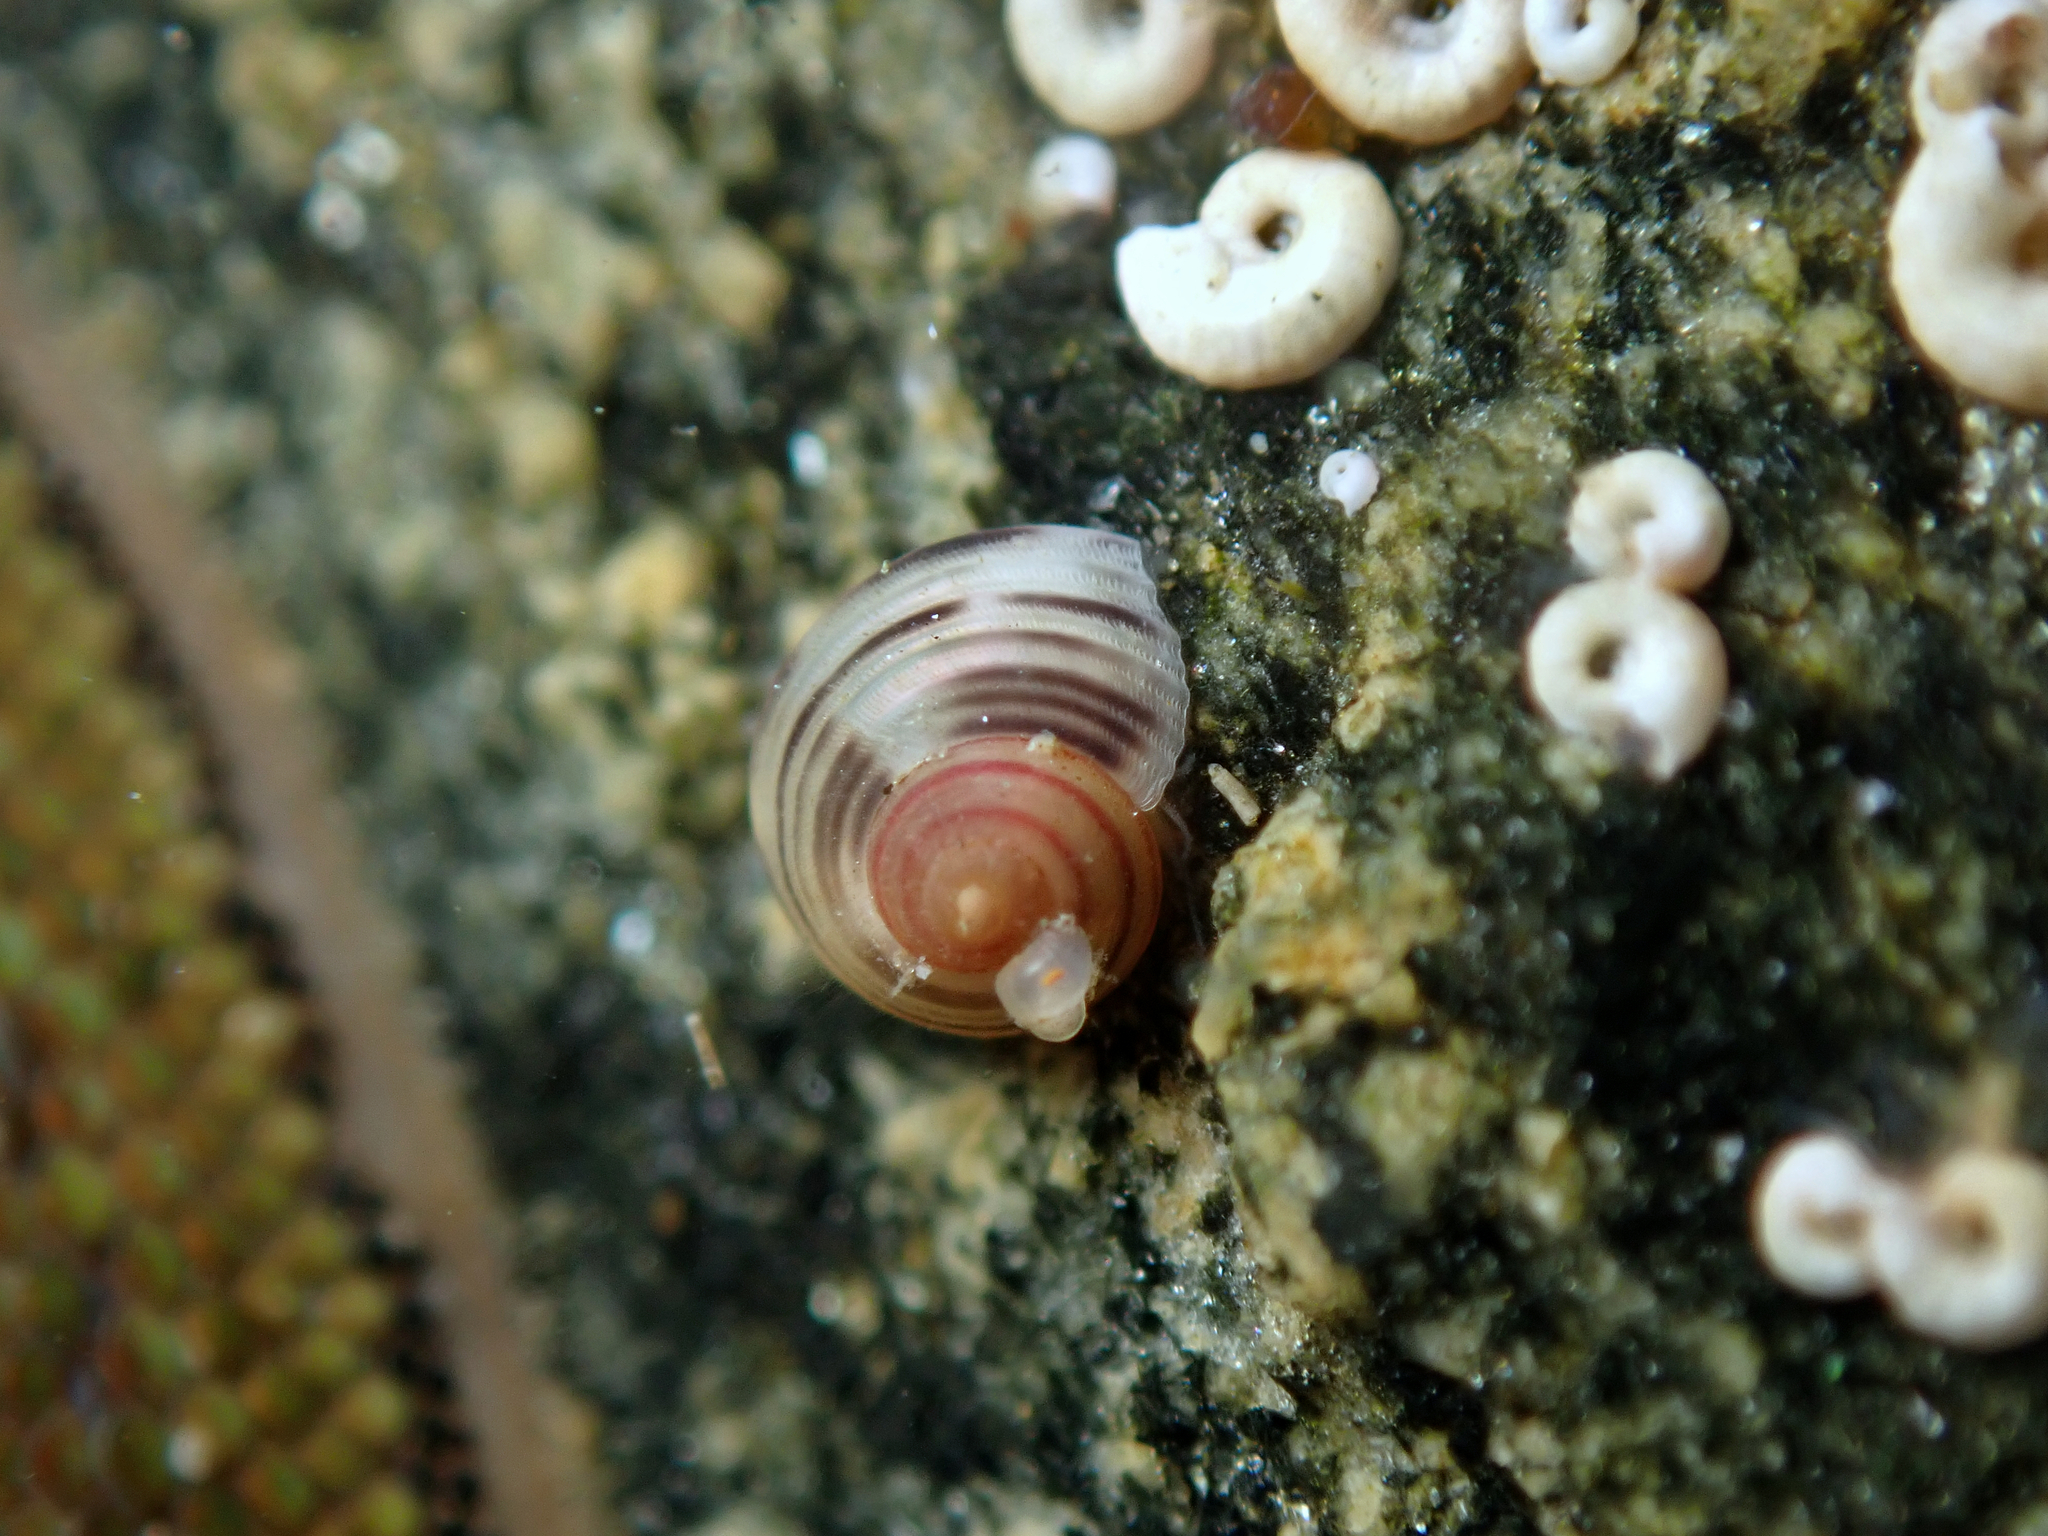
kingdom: Animalia
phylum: Mollusca
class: Gastropoda
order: Trochida
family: Trochidae
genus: Coelotrochus
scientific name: Coelotrochus chathamensis
